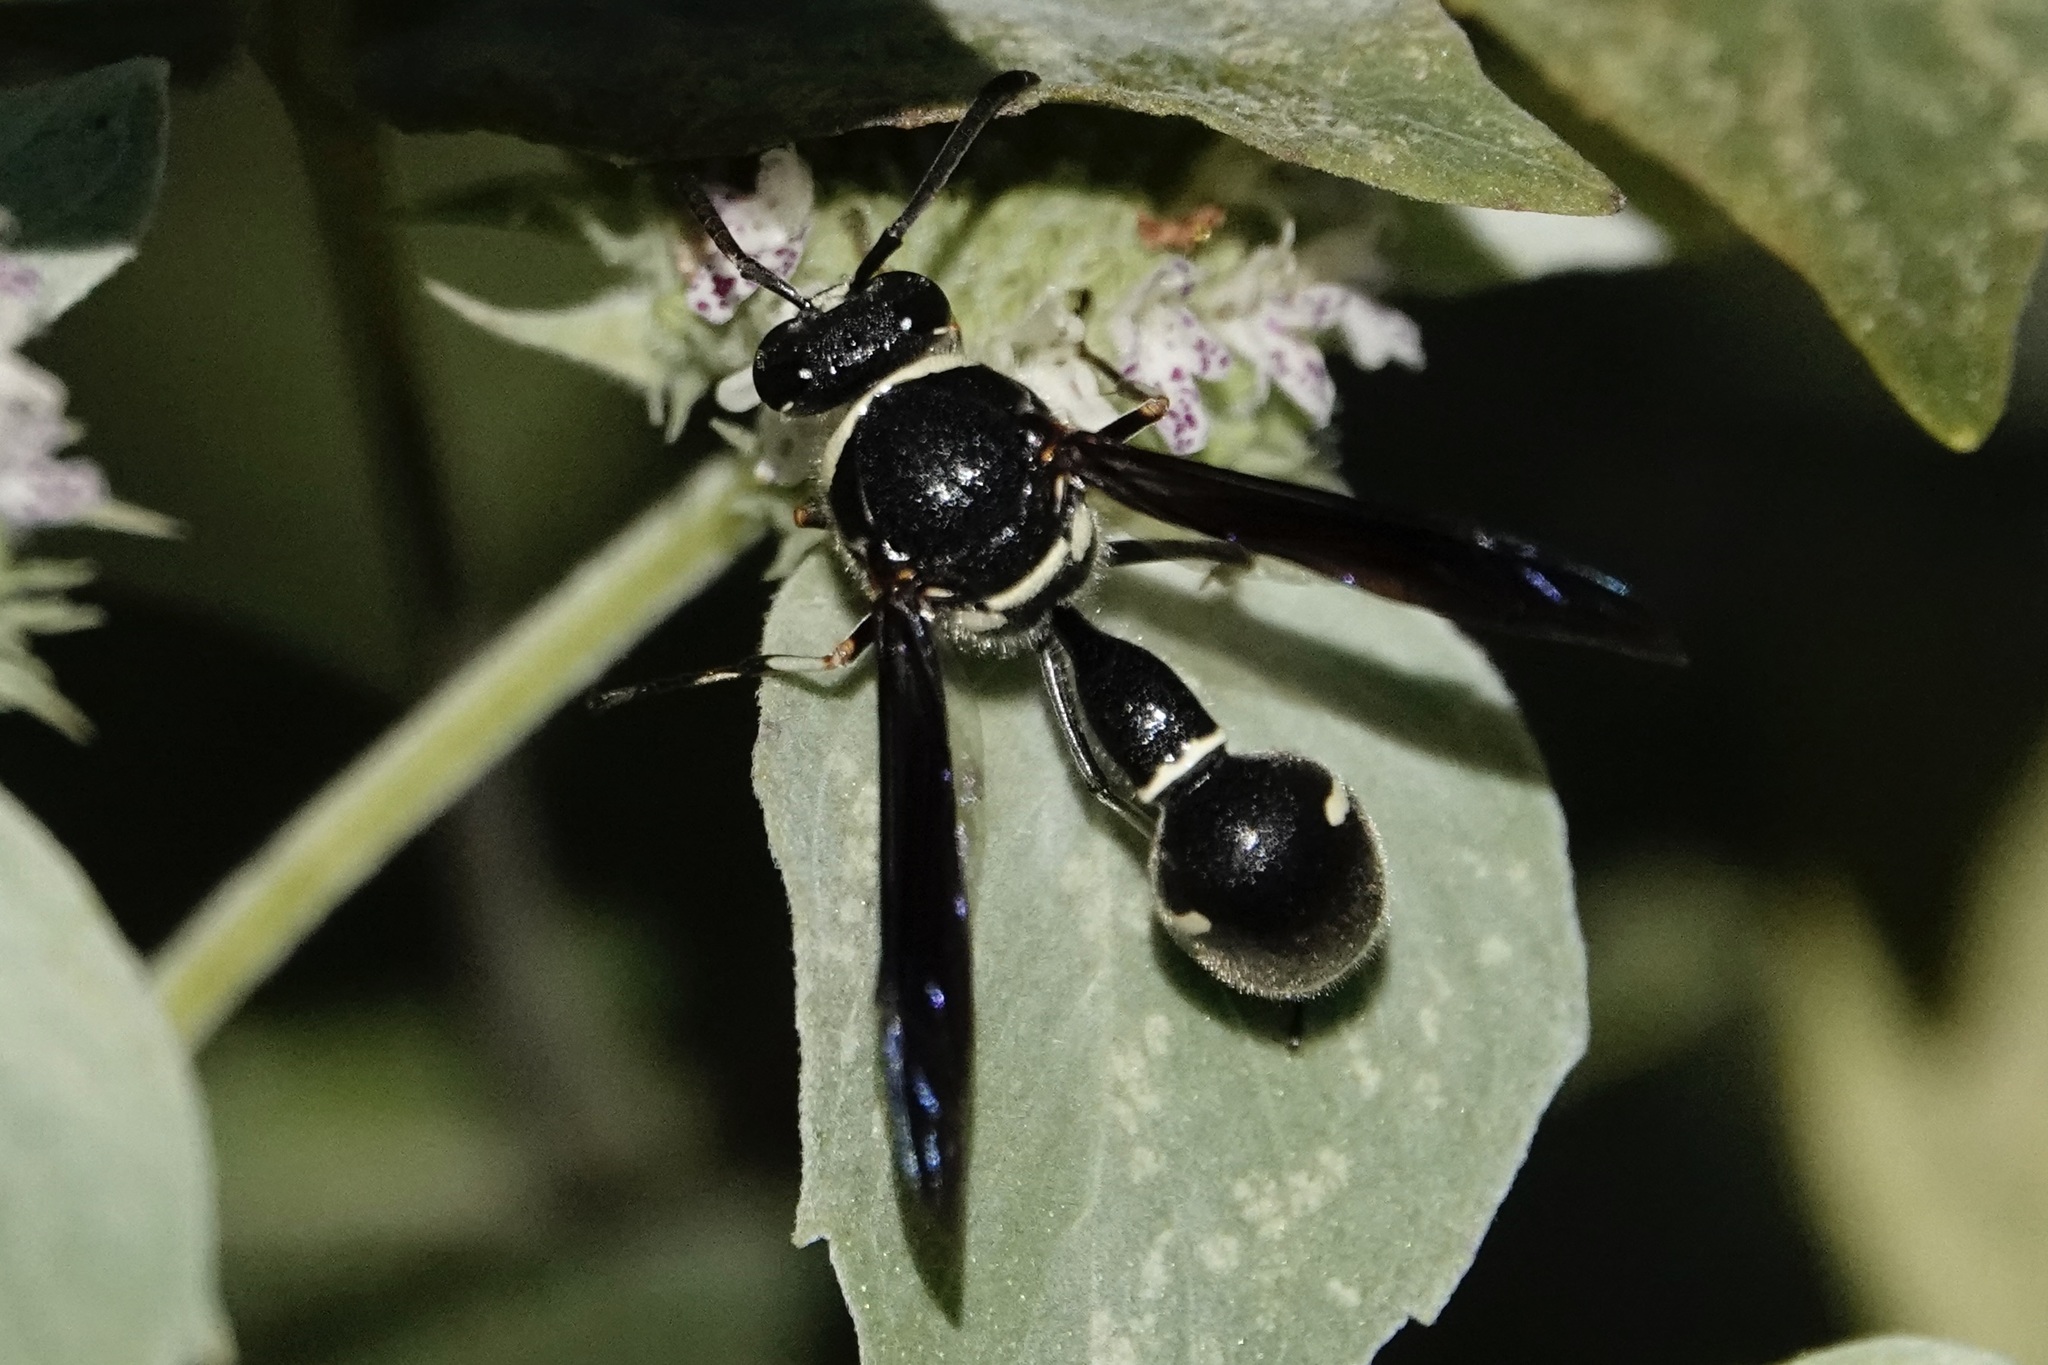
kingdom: Animalia
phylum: Arthropoda
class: Insecta
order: Hymenoptera
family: Vespidae
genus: Eumenes
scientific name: Eumenes fraternus
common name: Fraternal potter wasp
